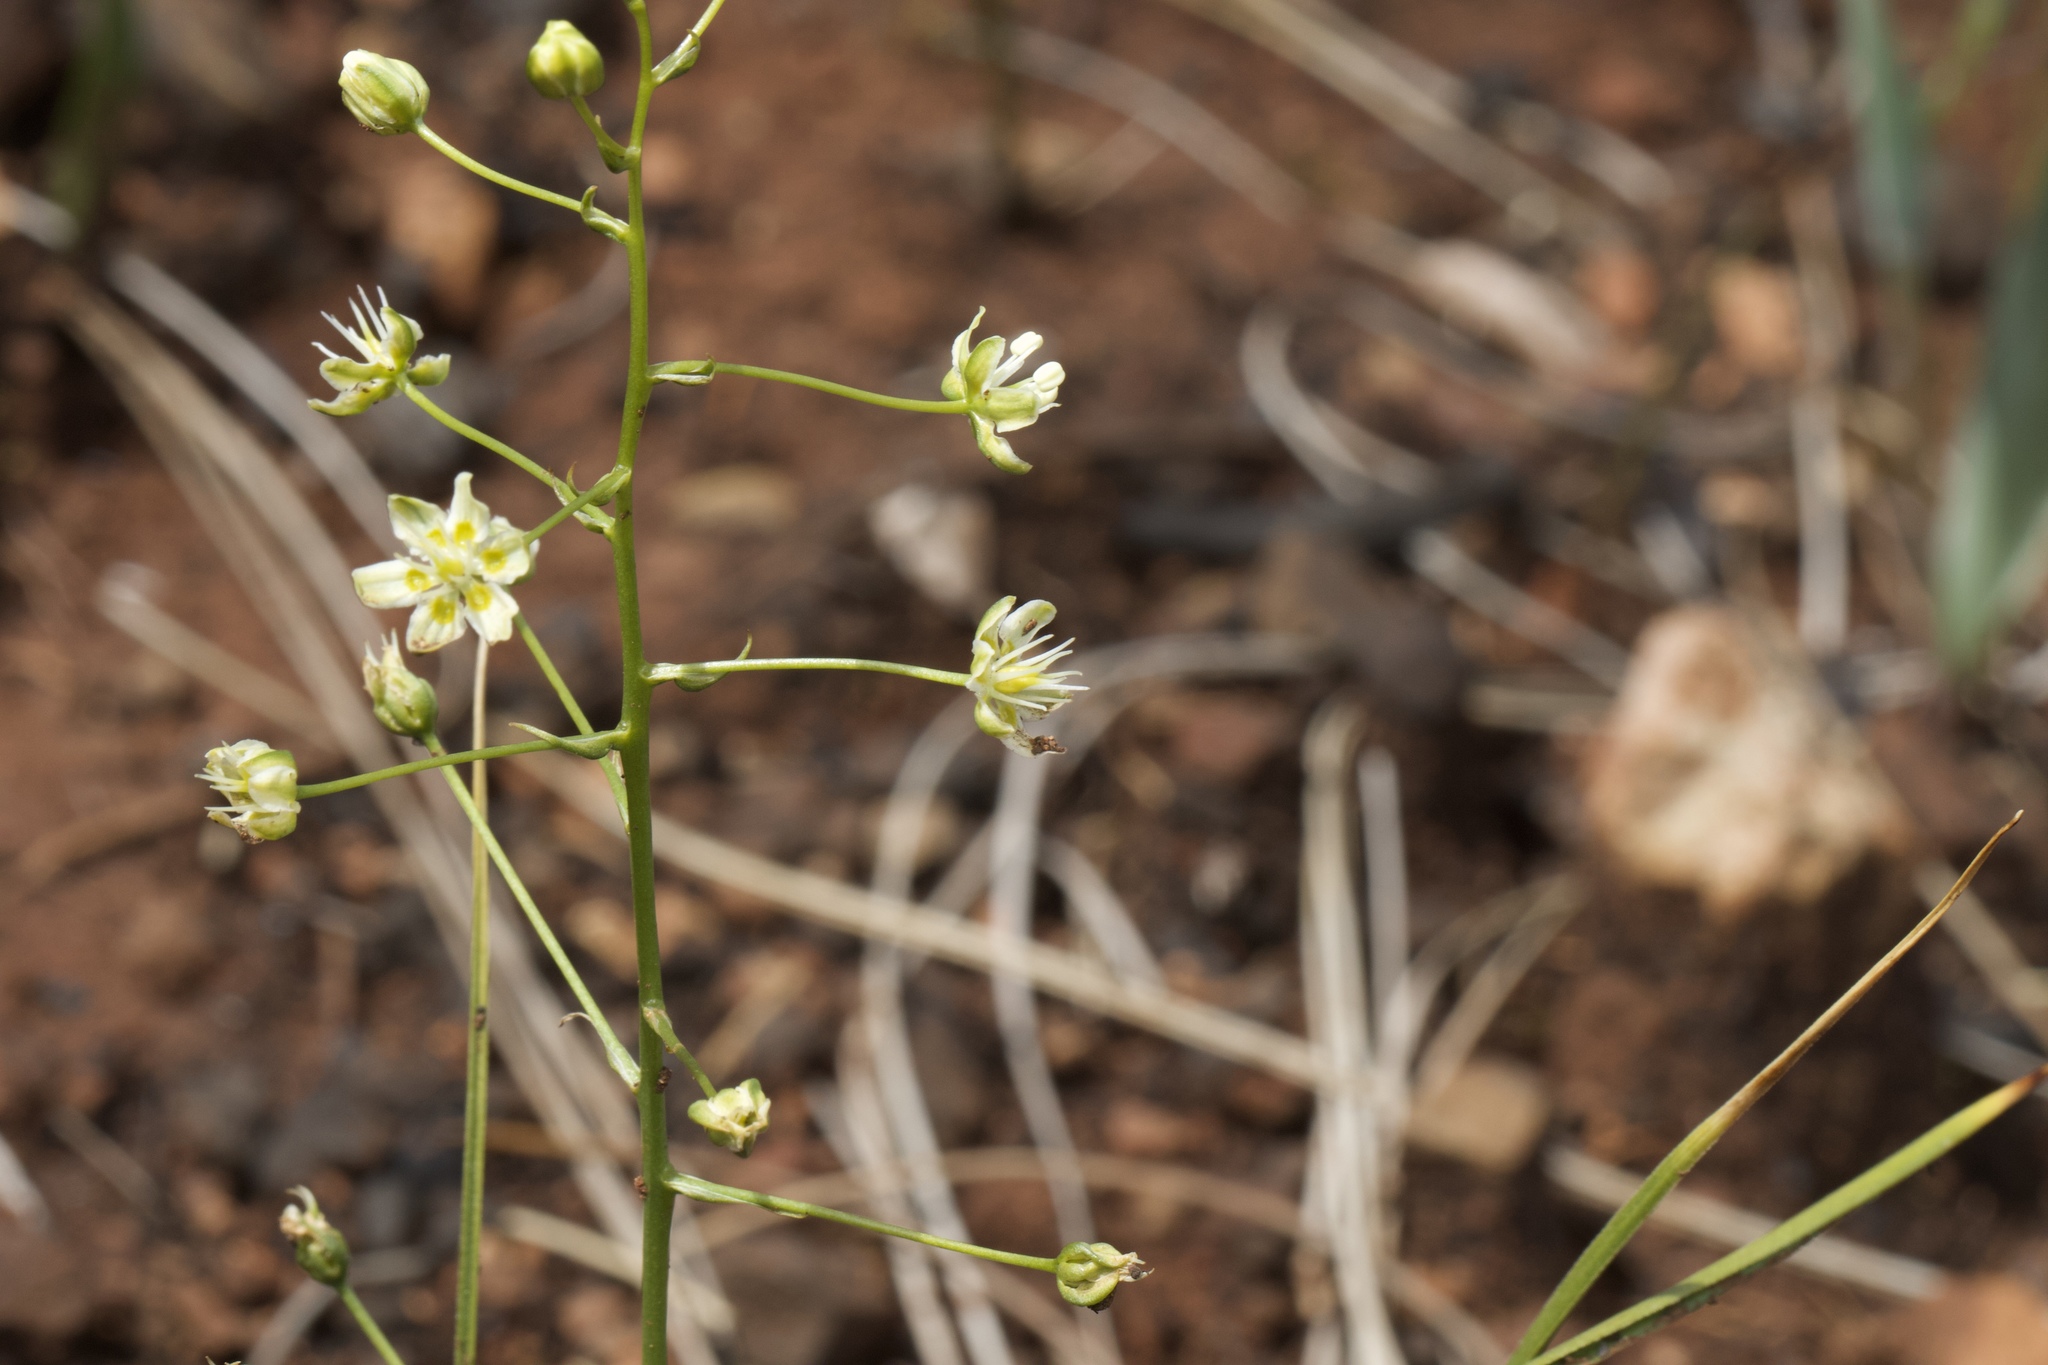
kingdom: Plantae
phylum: Tracheophyta
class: Liliopsida
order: Liliales
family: Melanthiaceae
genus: Toxicoscordion
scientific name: Toxicoscordion fontanum
